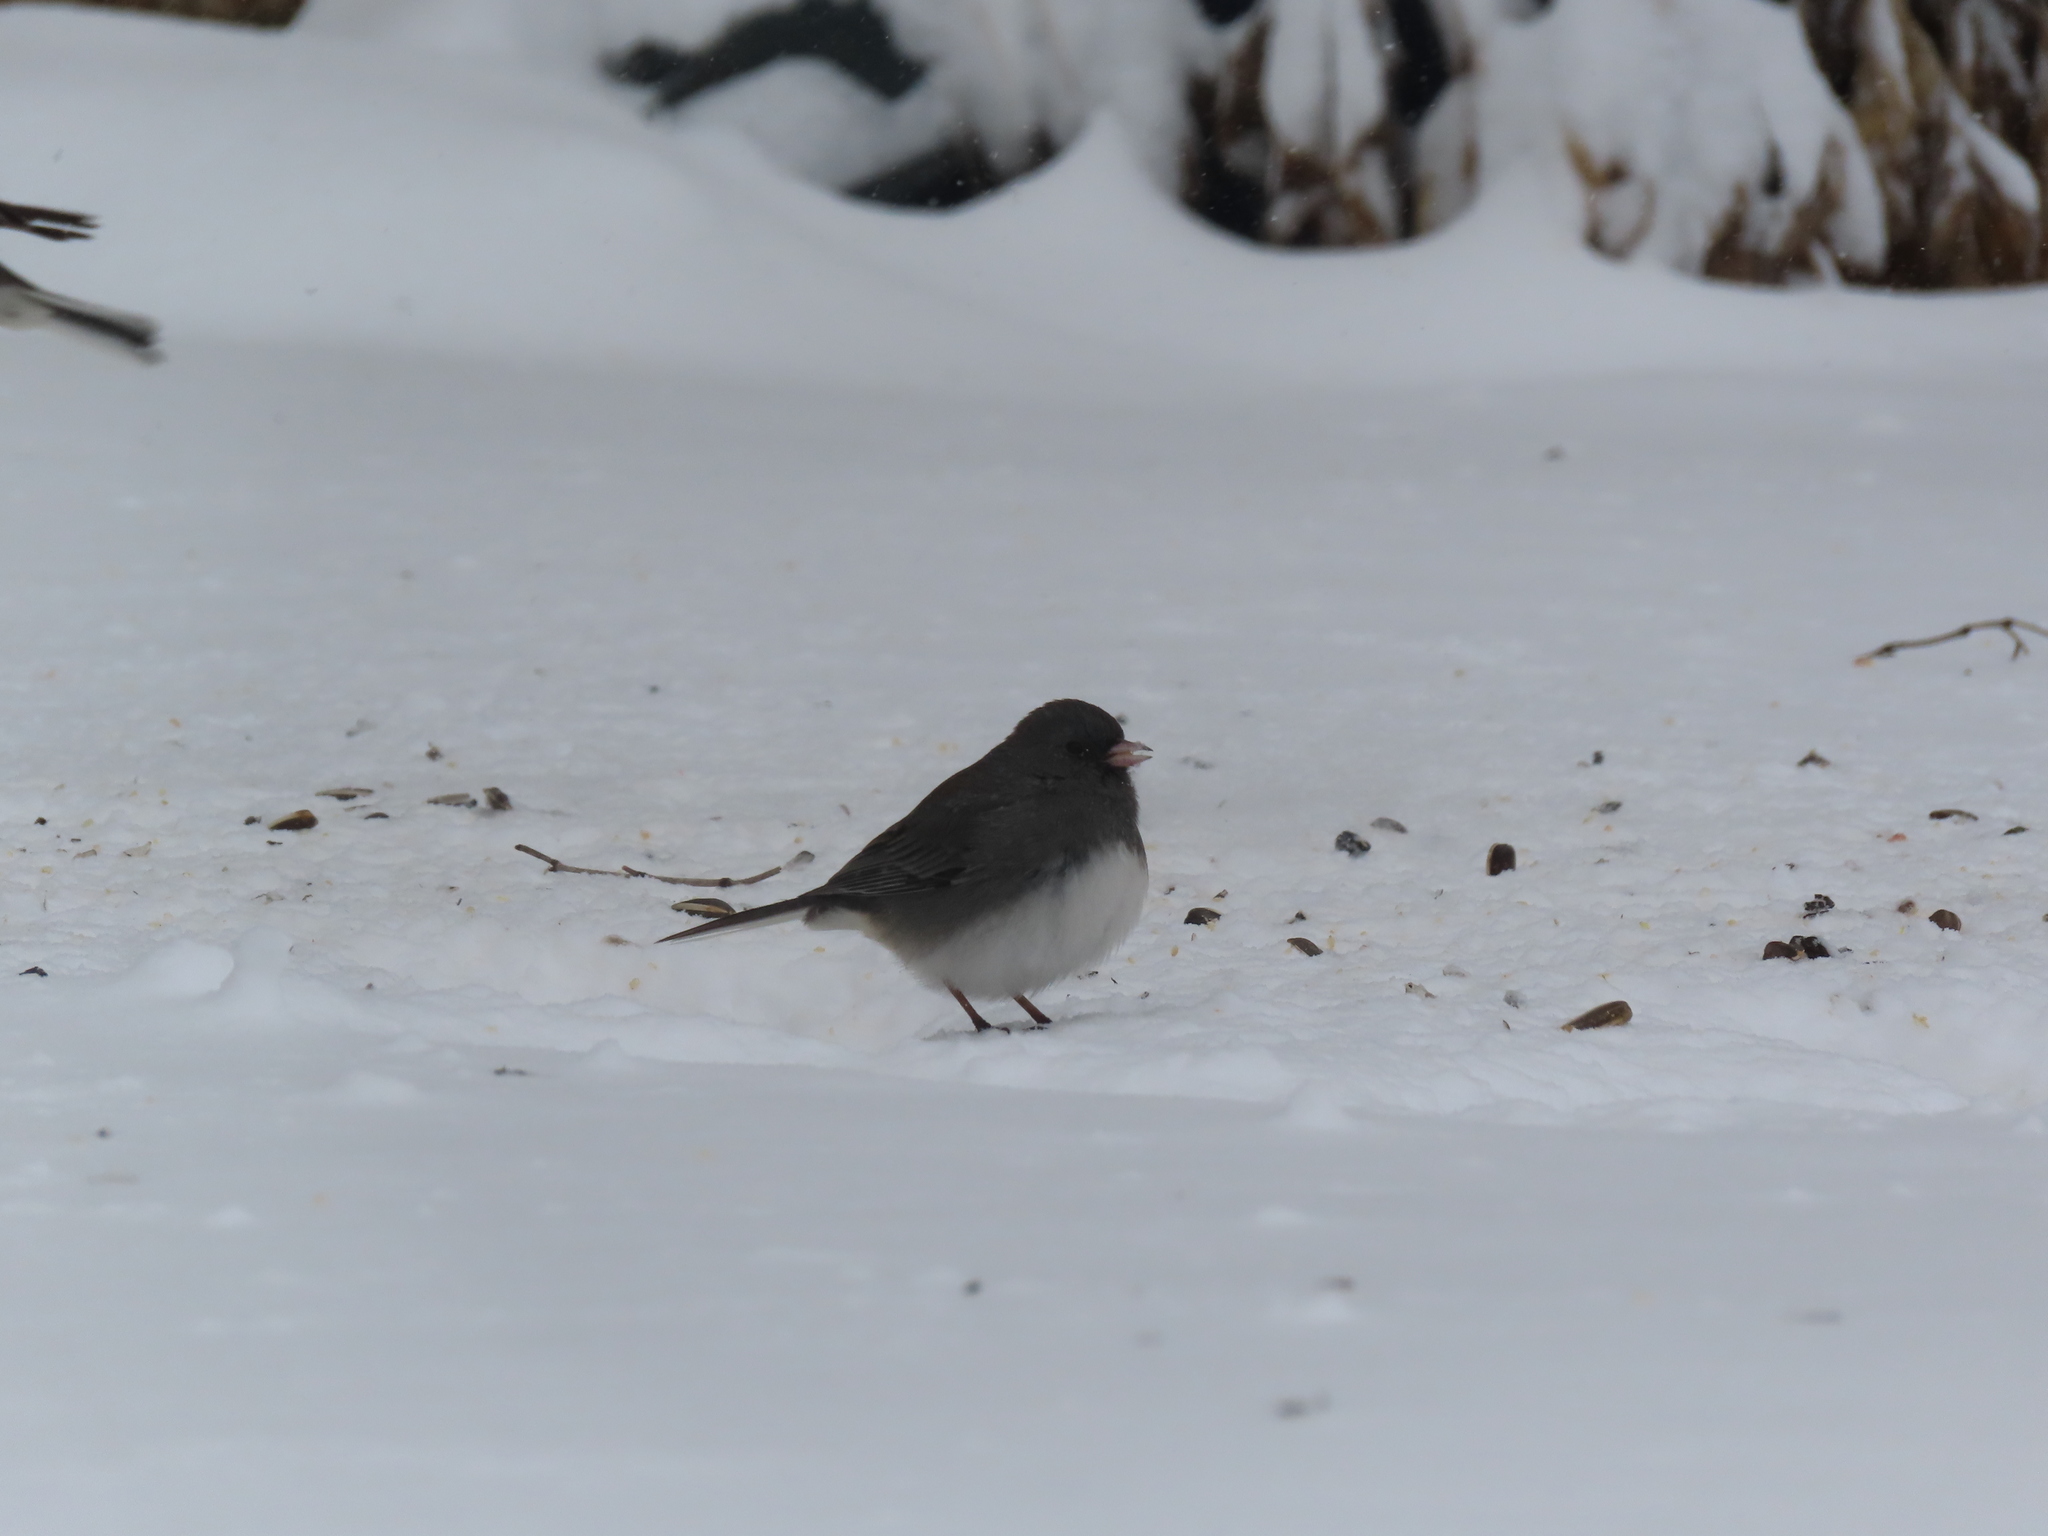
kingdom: Animalia
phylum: Chordata
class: Aves
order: Passeriformes
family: Passerellidae
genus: Junco
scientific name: Junco hyemalis
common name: Dark-eyed junco
